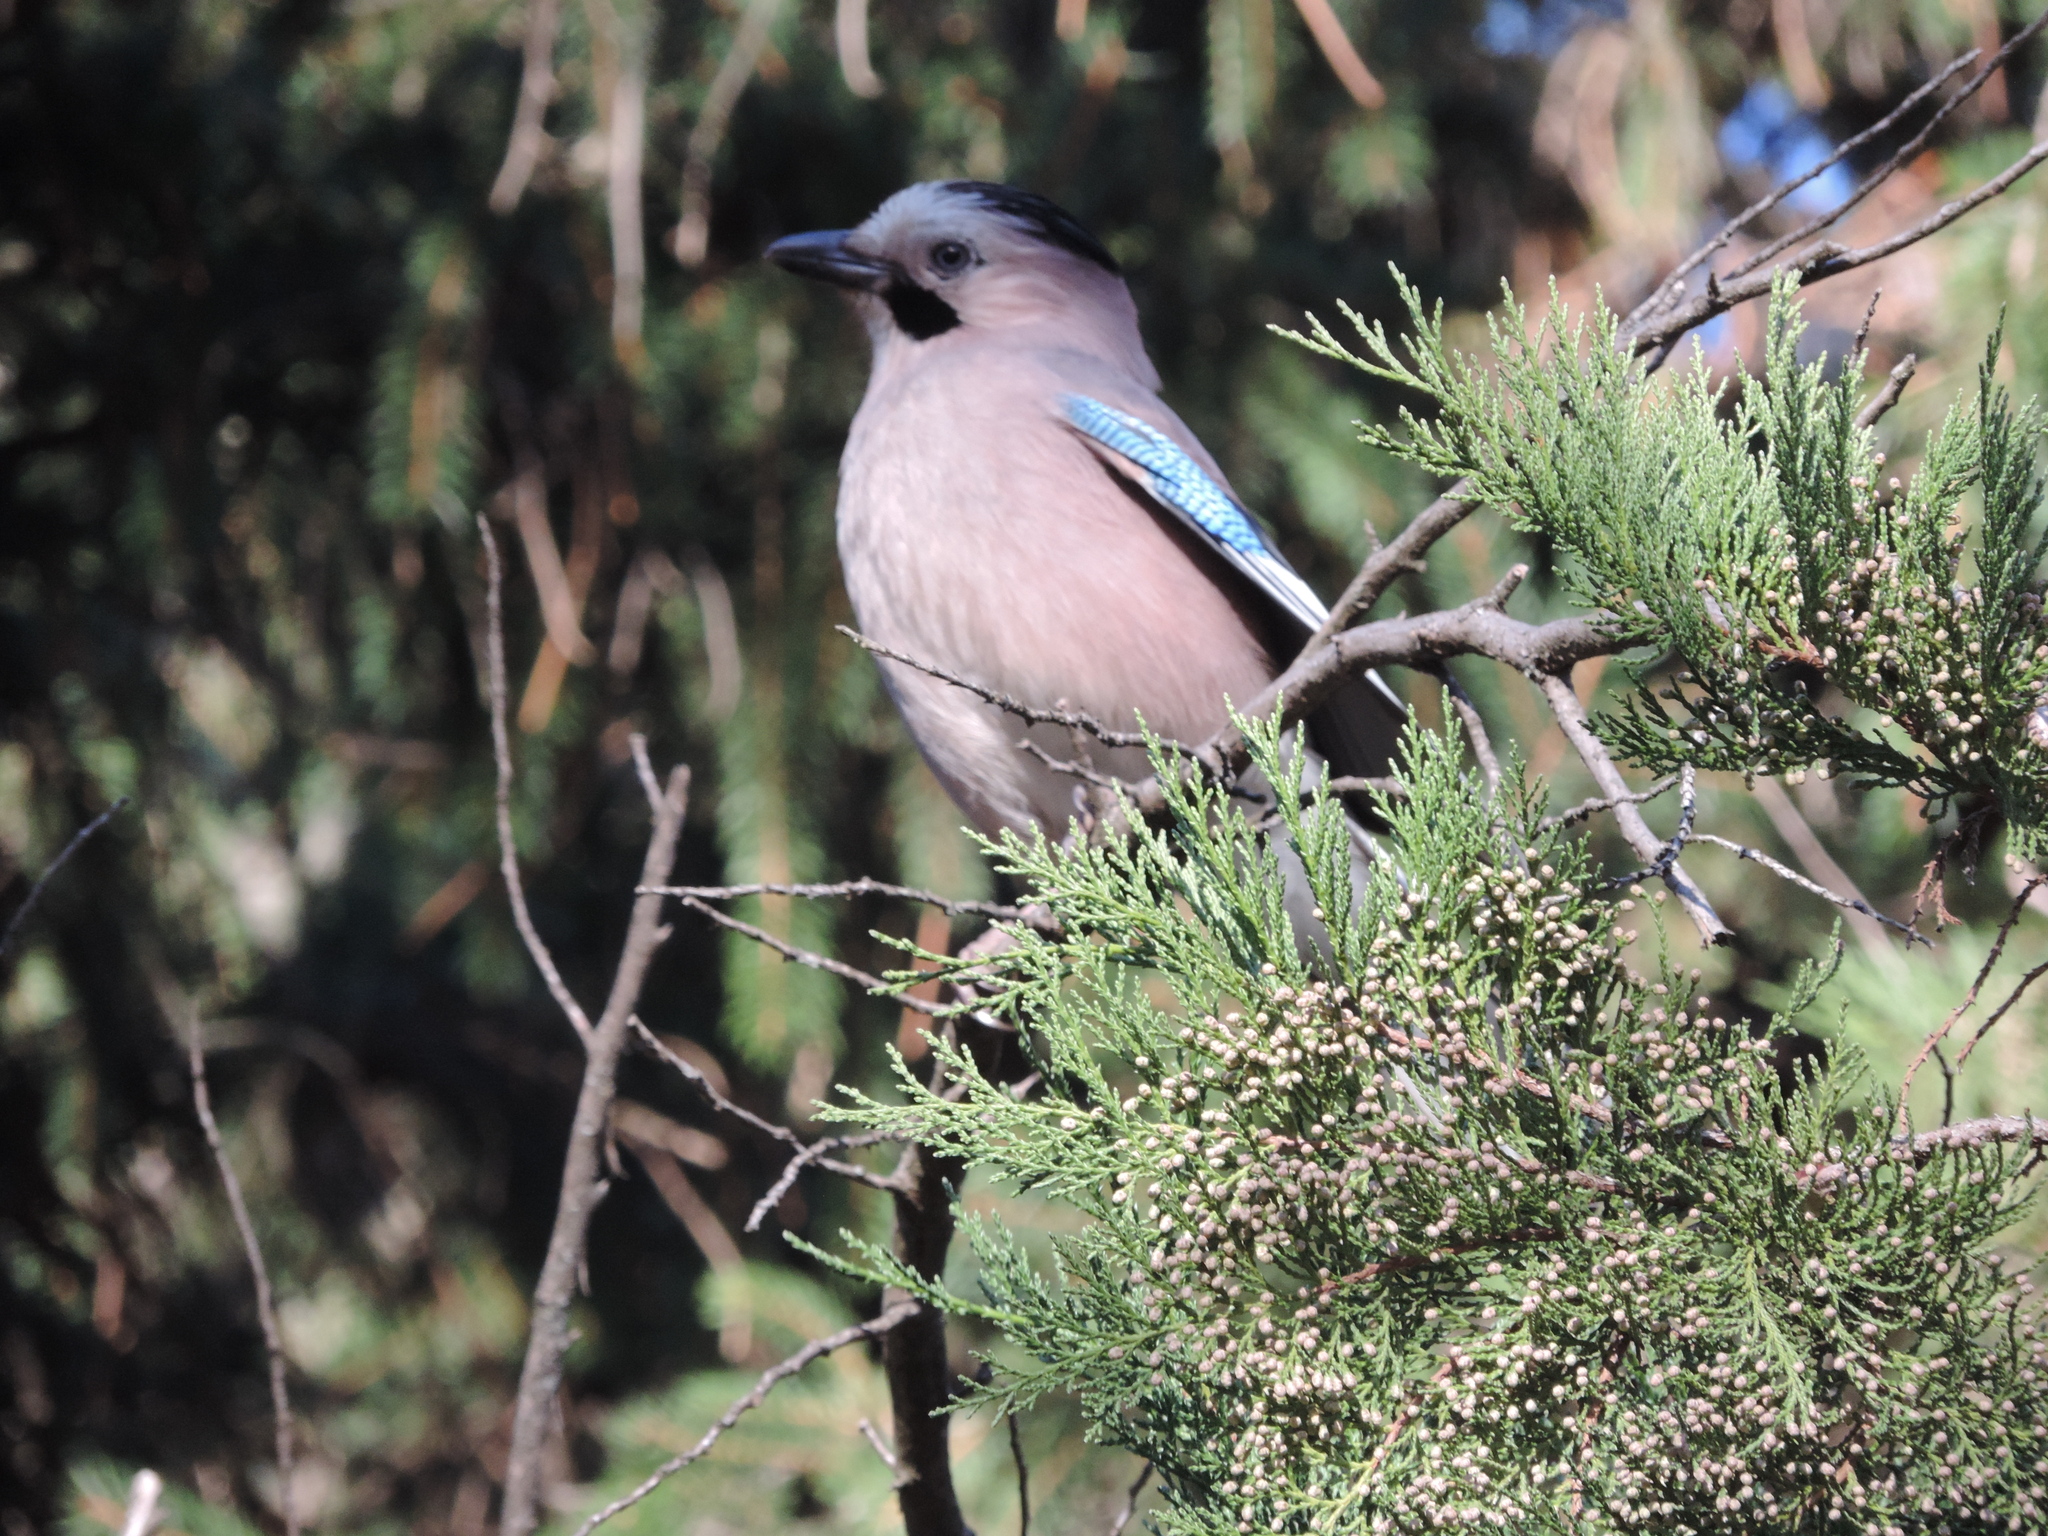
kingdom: Animalia
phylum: Chordata
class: Aves
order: Passeriformes
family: Corvidae
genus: Garrulus
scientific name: Garrulus glandarius
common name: Eurasian jay
